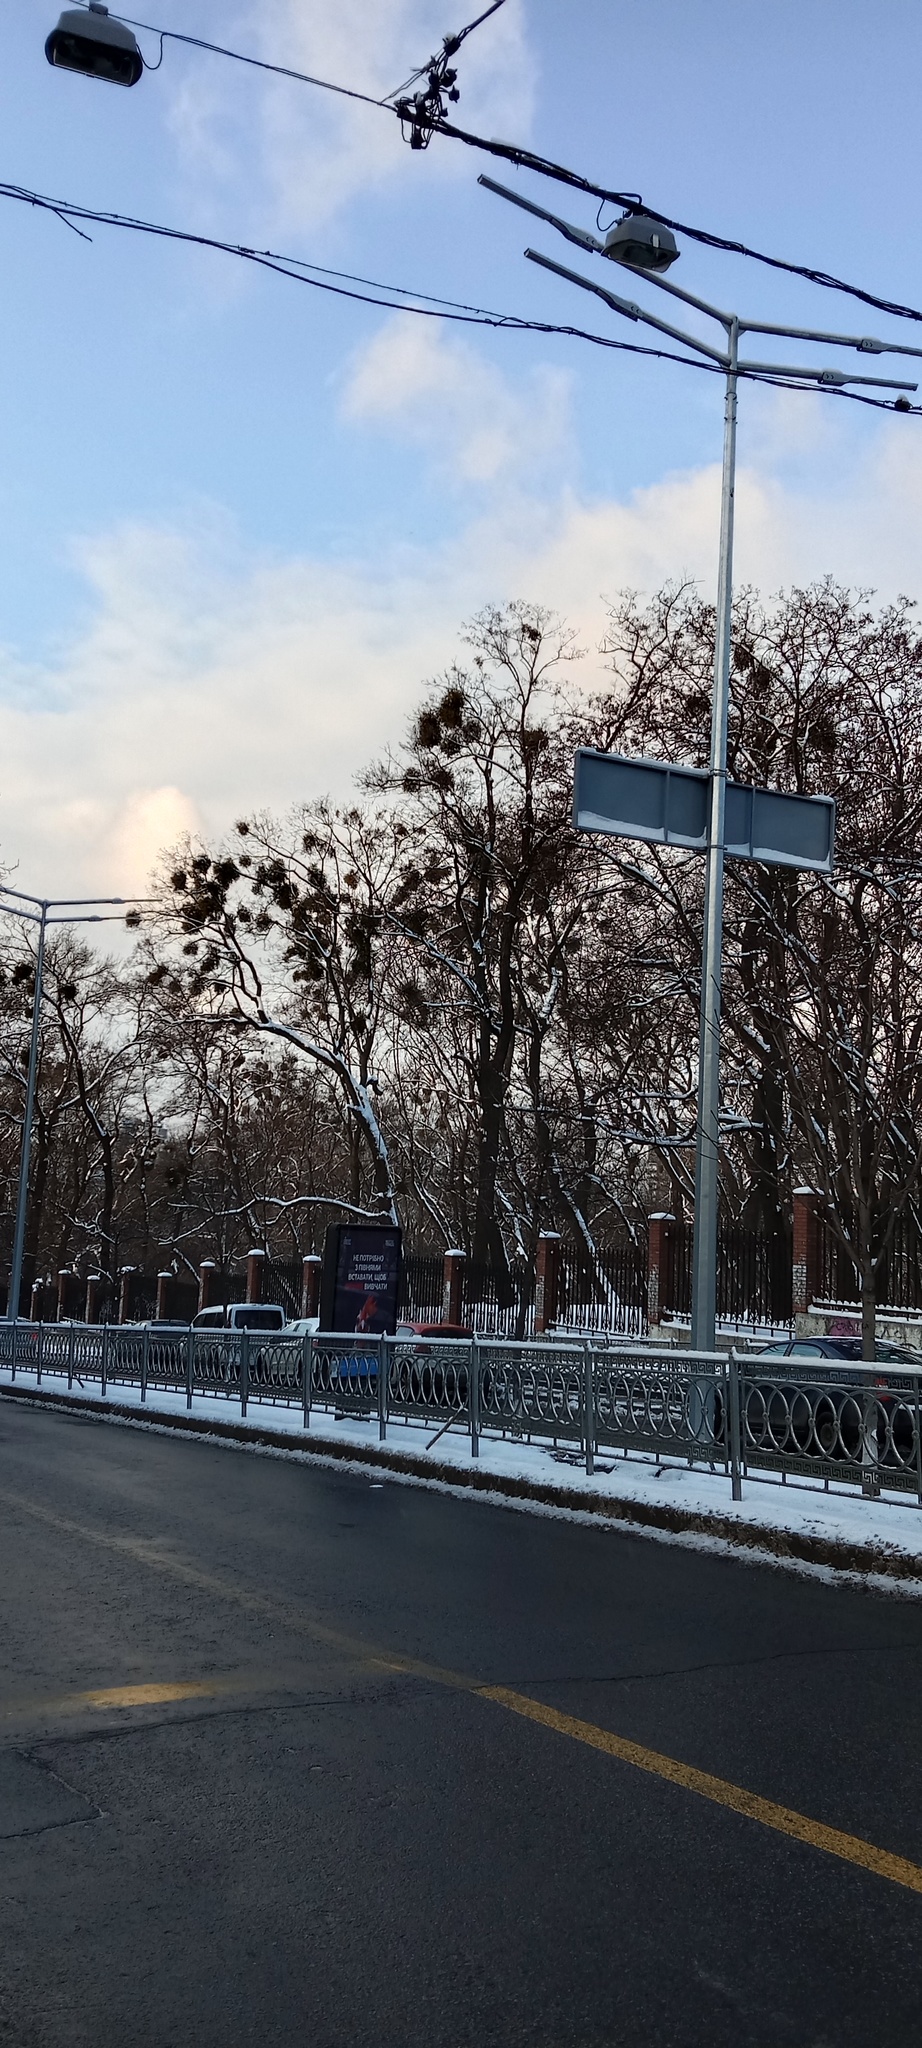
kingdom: Plantae
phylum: Tracheophyta
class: Magnoliopsida
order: Santalales
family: Viscaceae
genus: Viscum
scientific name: Viscum album
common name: Mistletoe
